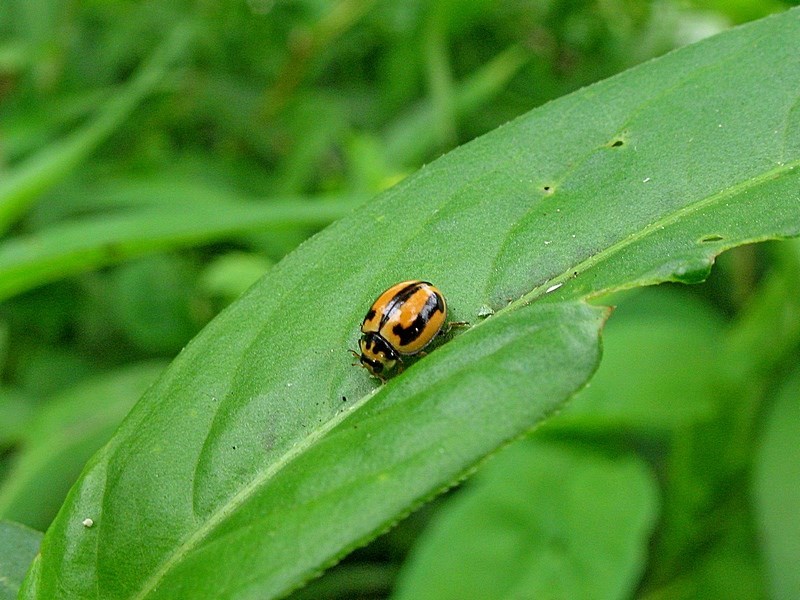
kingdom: Animalia
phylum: Arthropoda
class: Insecta
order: Coleoptera
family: Coccinellidae
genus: Micraspis
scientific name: Micraspis frenata
